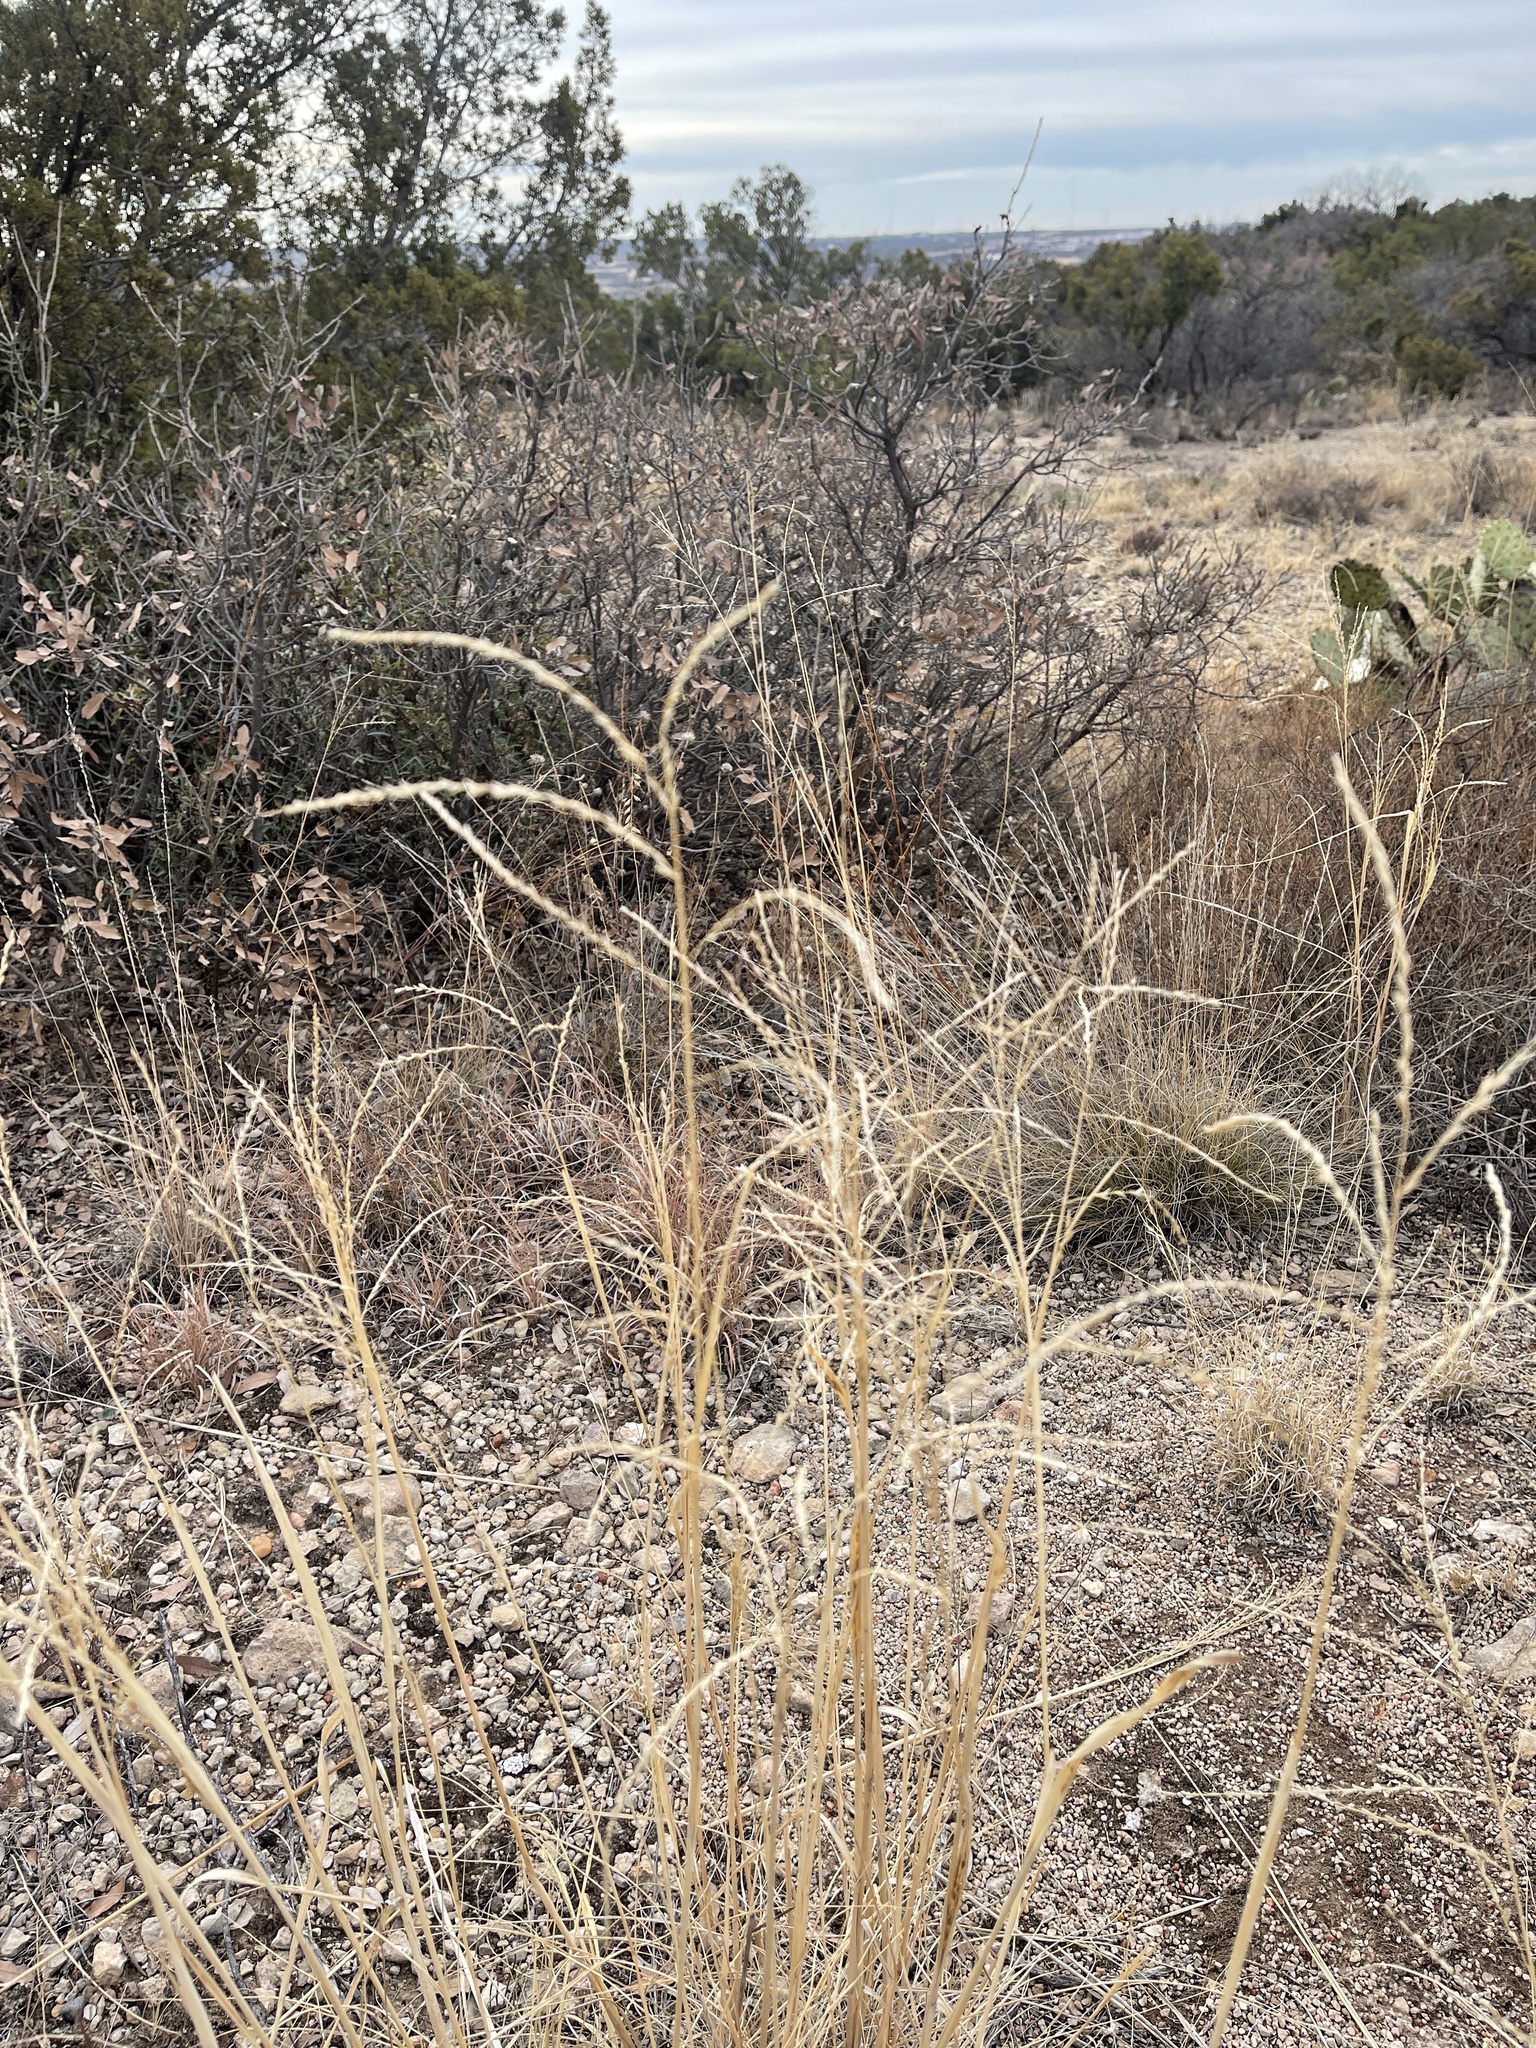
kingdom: Plantae
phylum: Tracheophyta
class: Liliopsida
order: Poales
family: Poaceae
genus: Disakisperma
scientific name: Disakisperma dubium
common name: Green sprangletop
